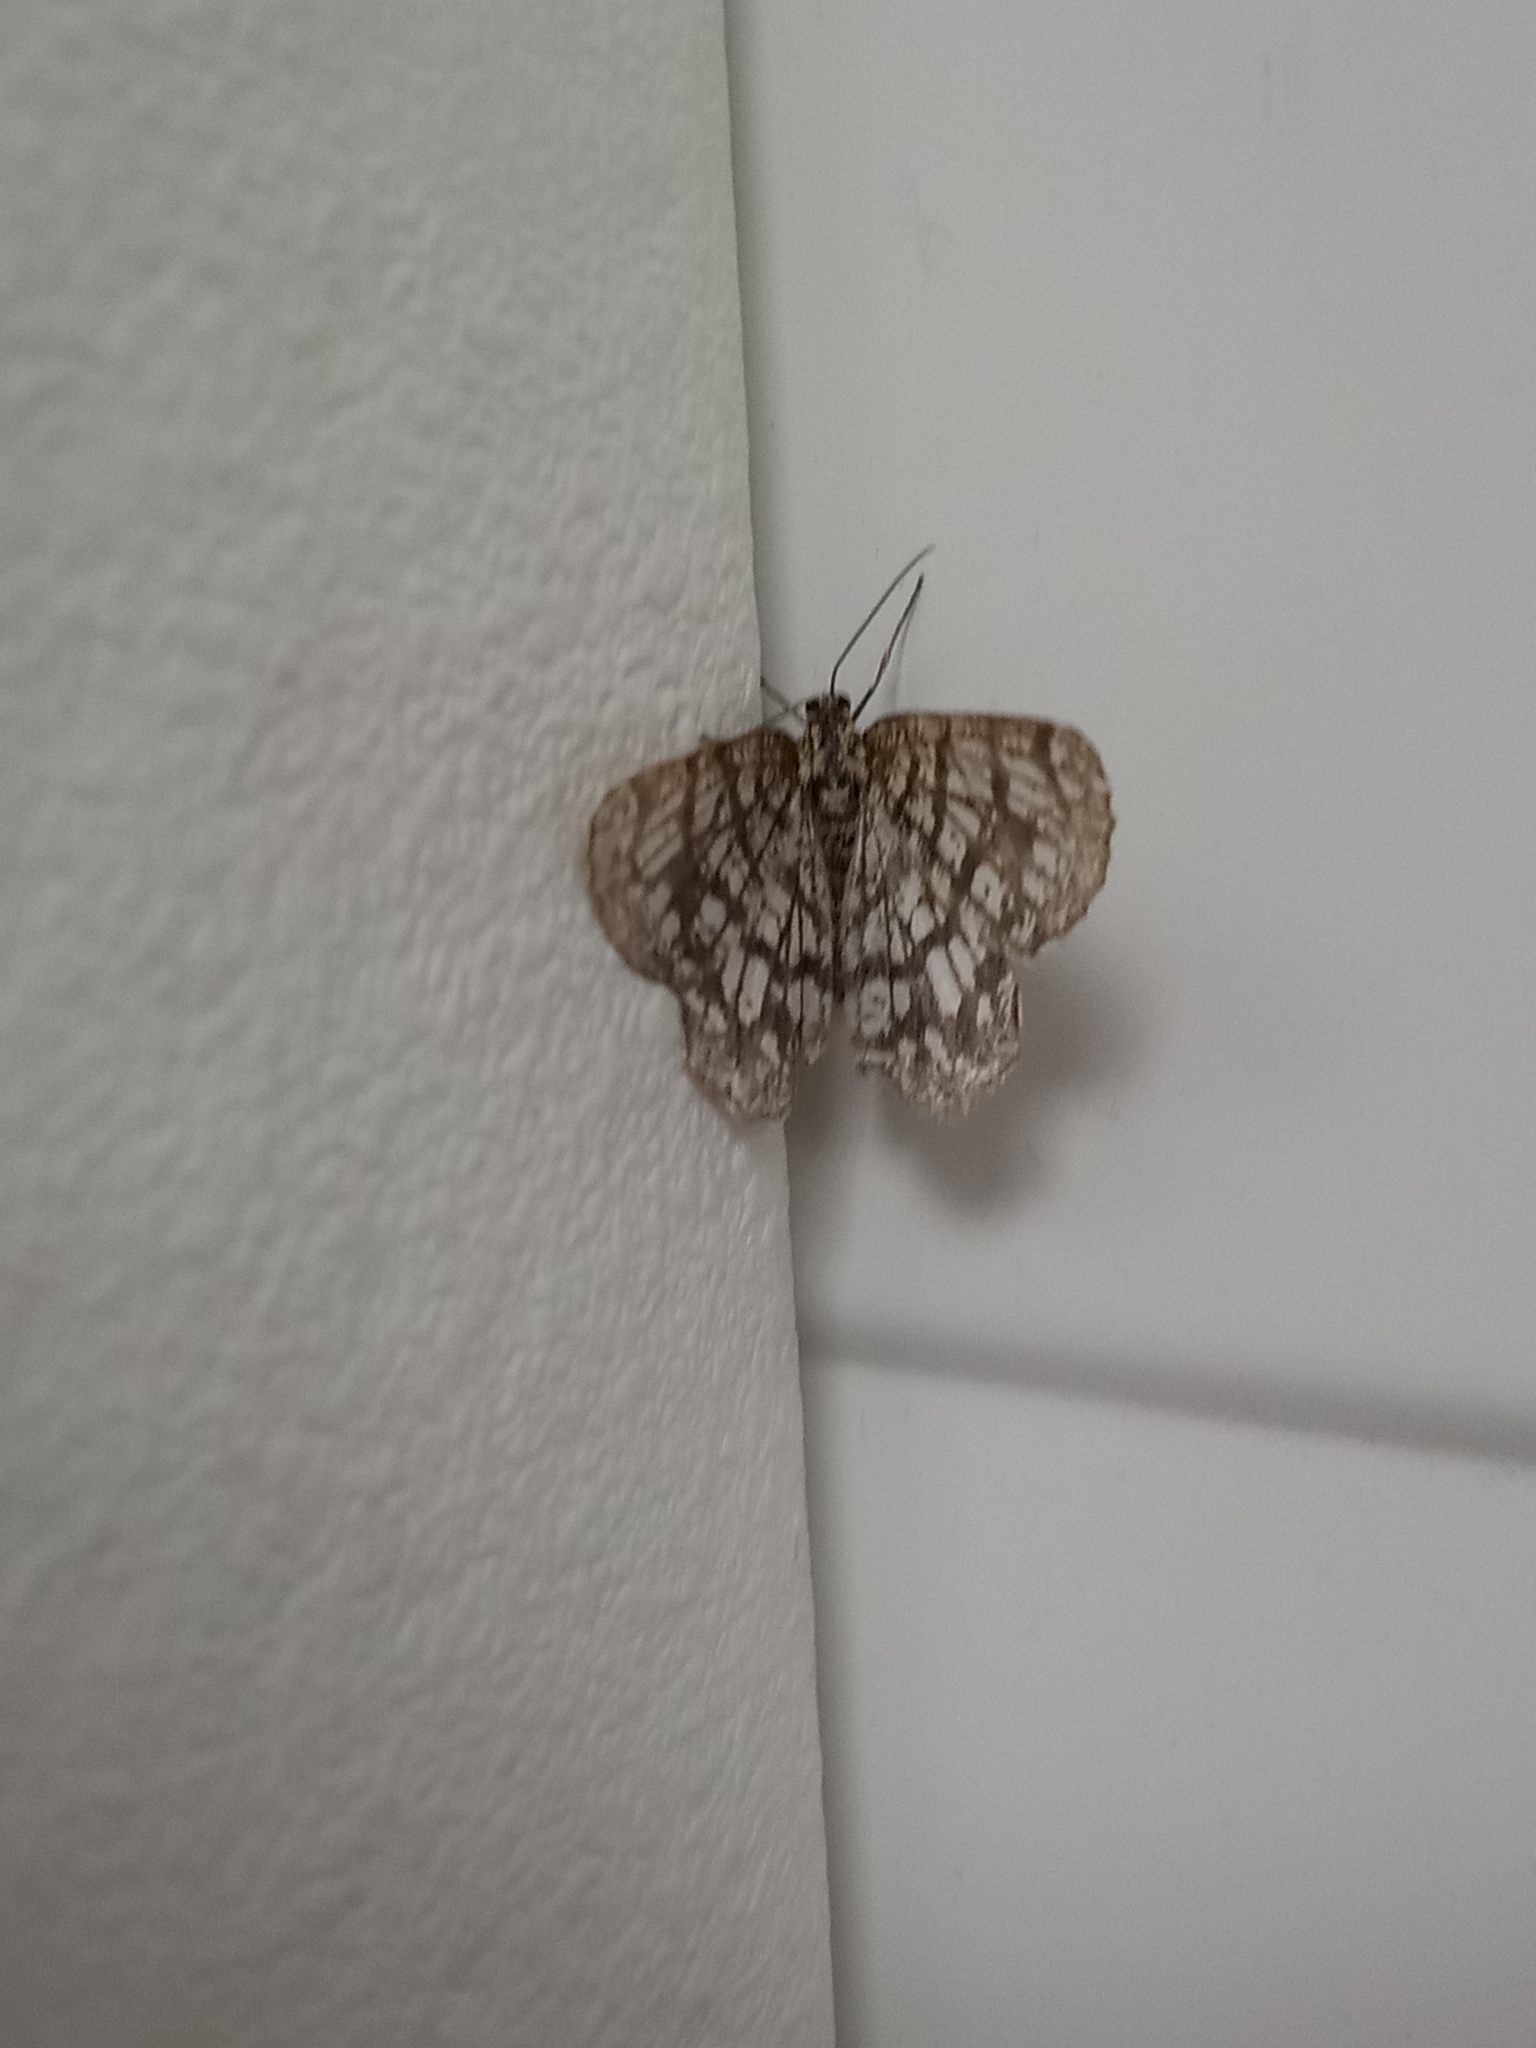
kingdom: Animalia
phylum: Arthropoda
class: Insecta
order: Lepidoptera
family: Geometridae
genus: Chiasmia
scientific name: Chiasmia clathrata
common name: Latticed heath
